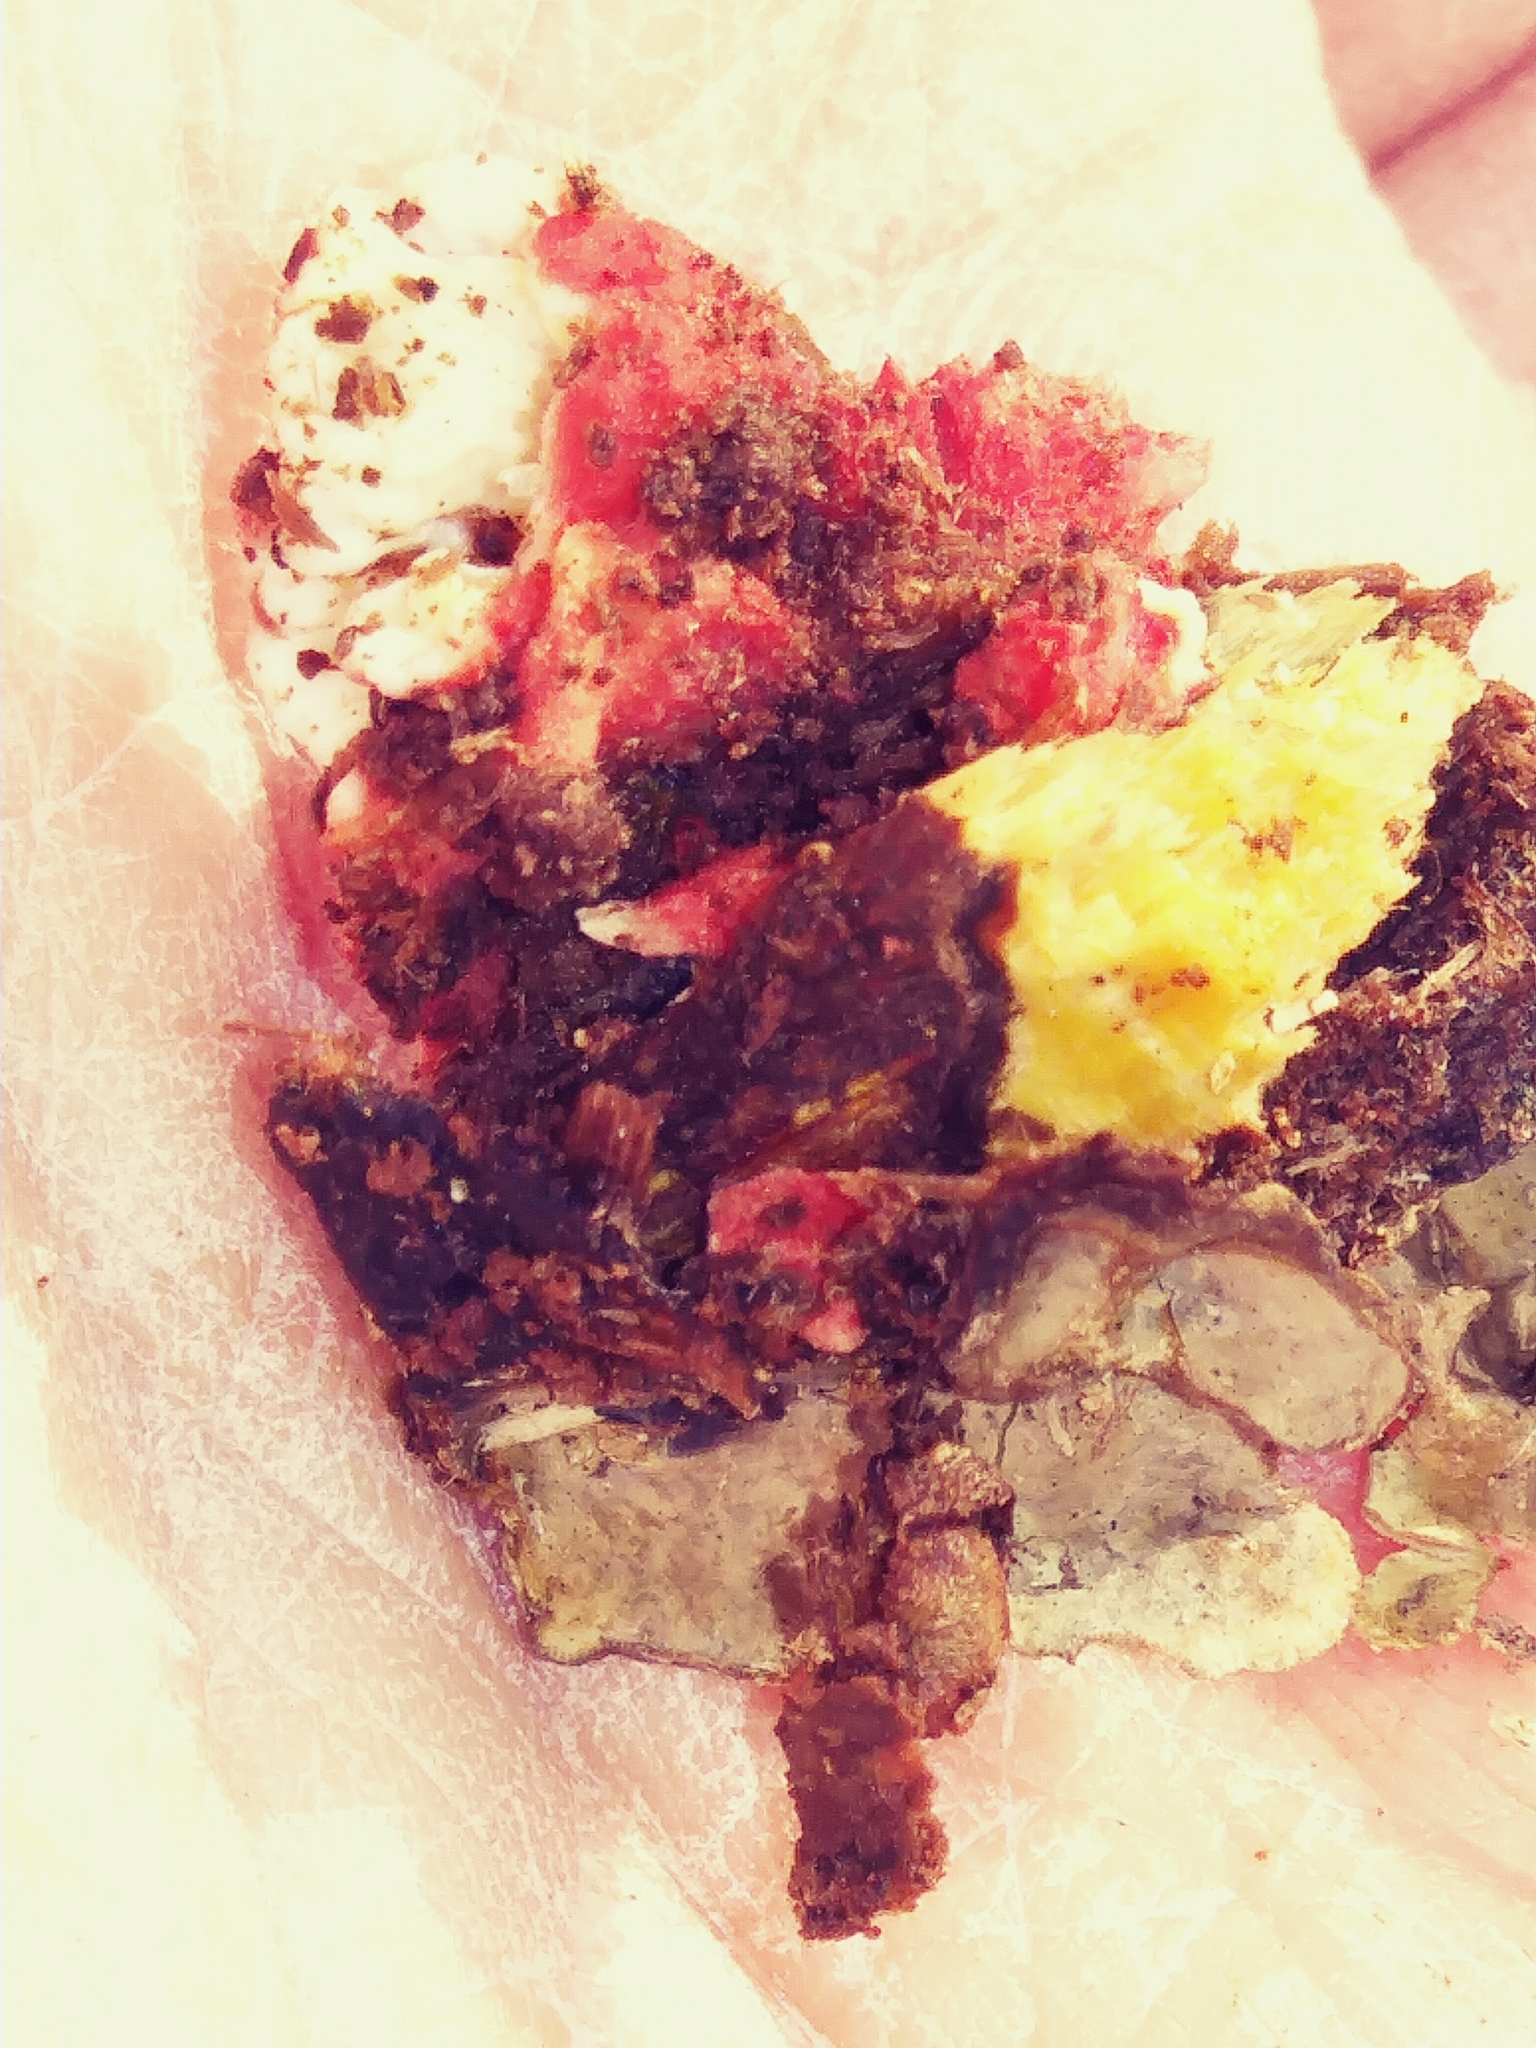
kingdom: Fungi
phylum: Basidiomycota
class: Agaricomycetes
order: Polyporales
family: Irpicaceae
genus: Byssomerulius
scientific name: Byssomerulius incarnatus
